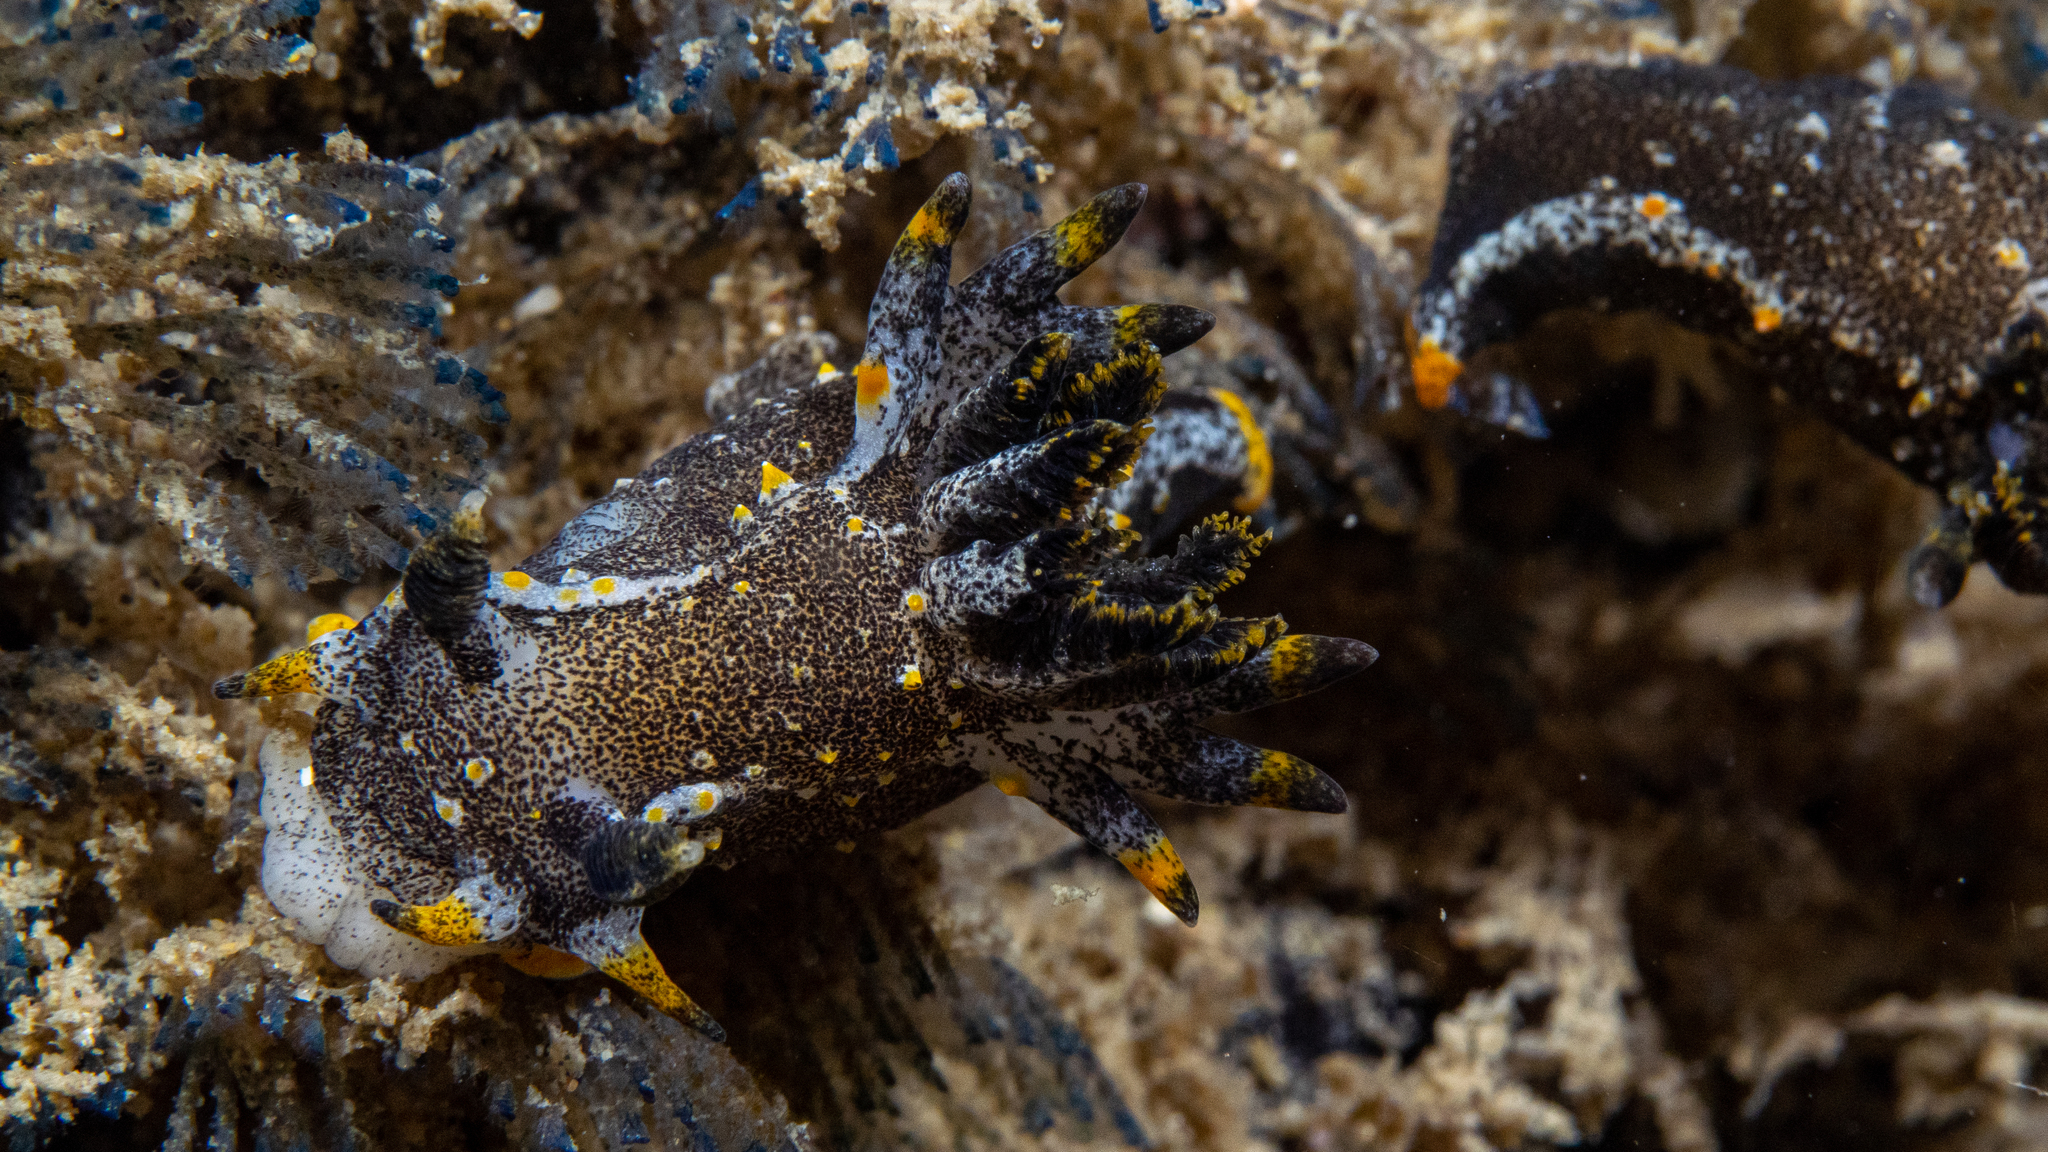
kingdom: Animalia
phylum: Mollusca
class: Gastropoda
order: Nudibranchia
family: Polyceridae
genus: Polycera
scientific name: Polycera hedgpethi
